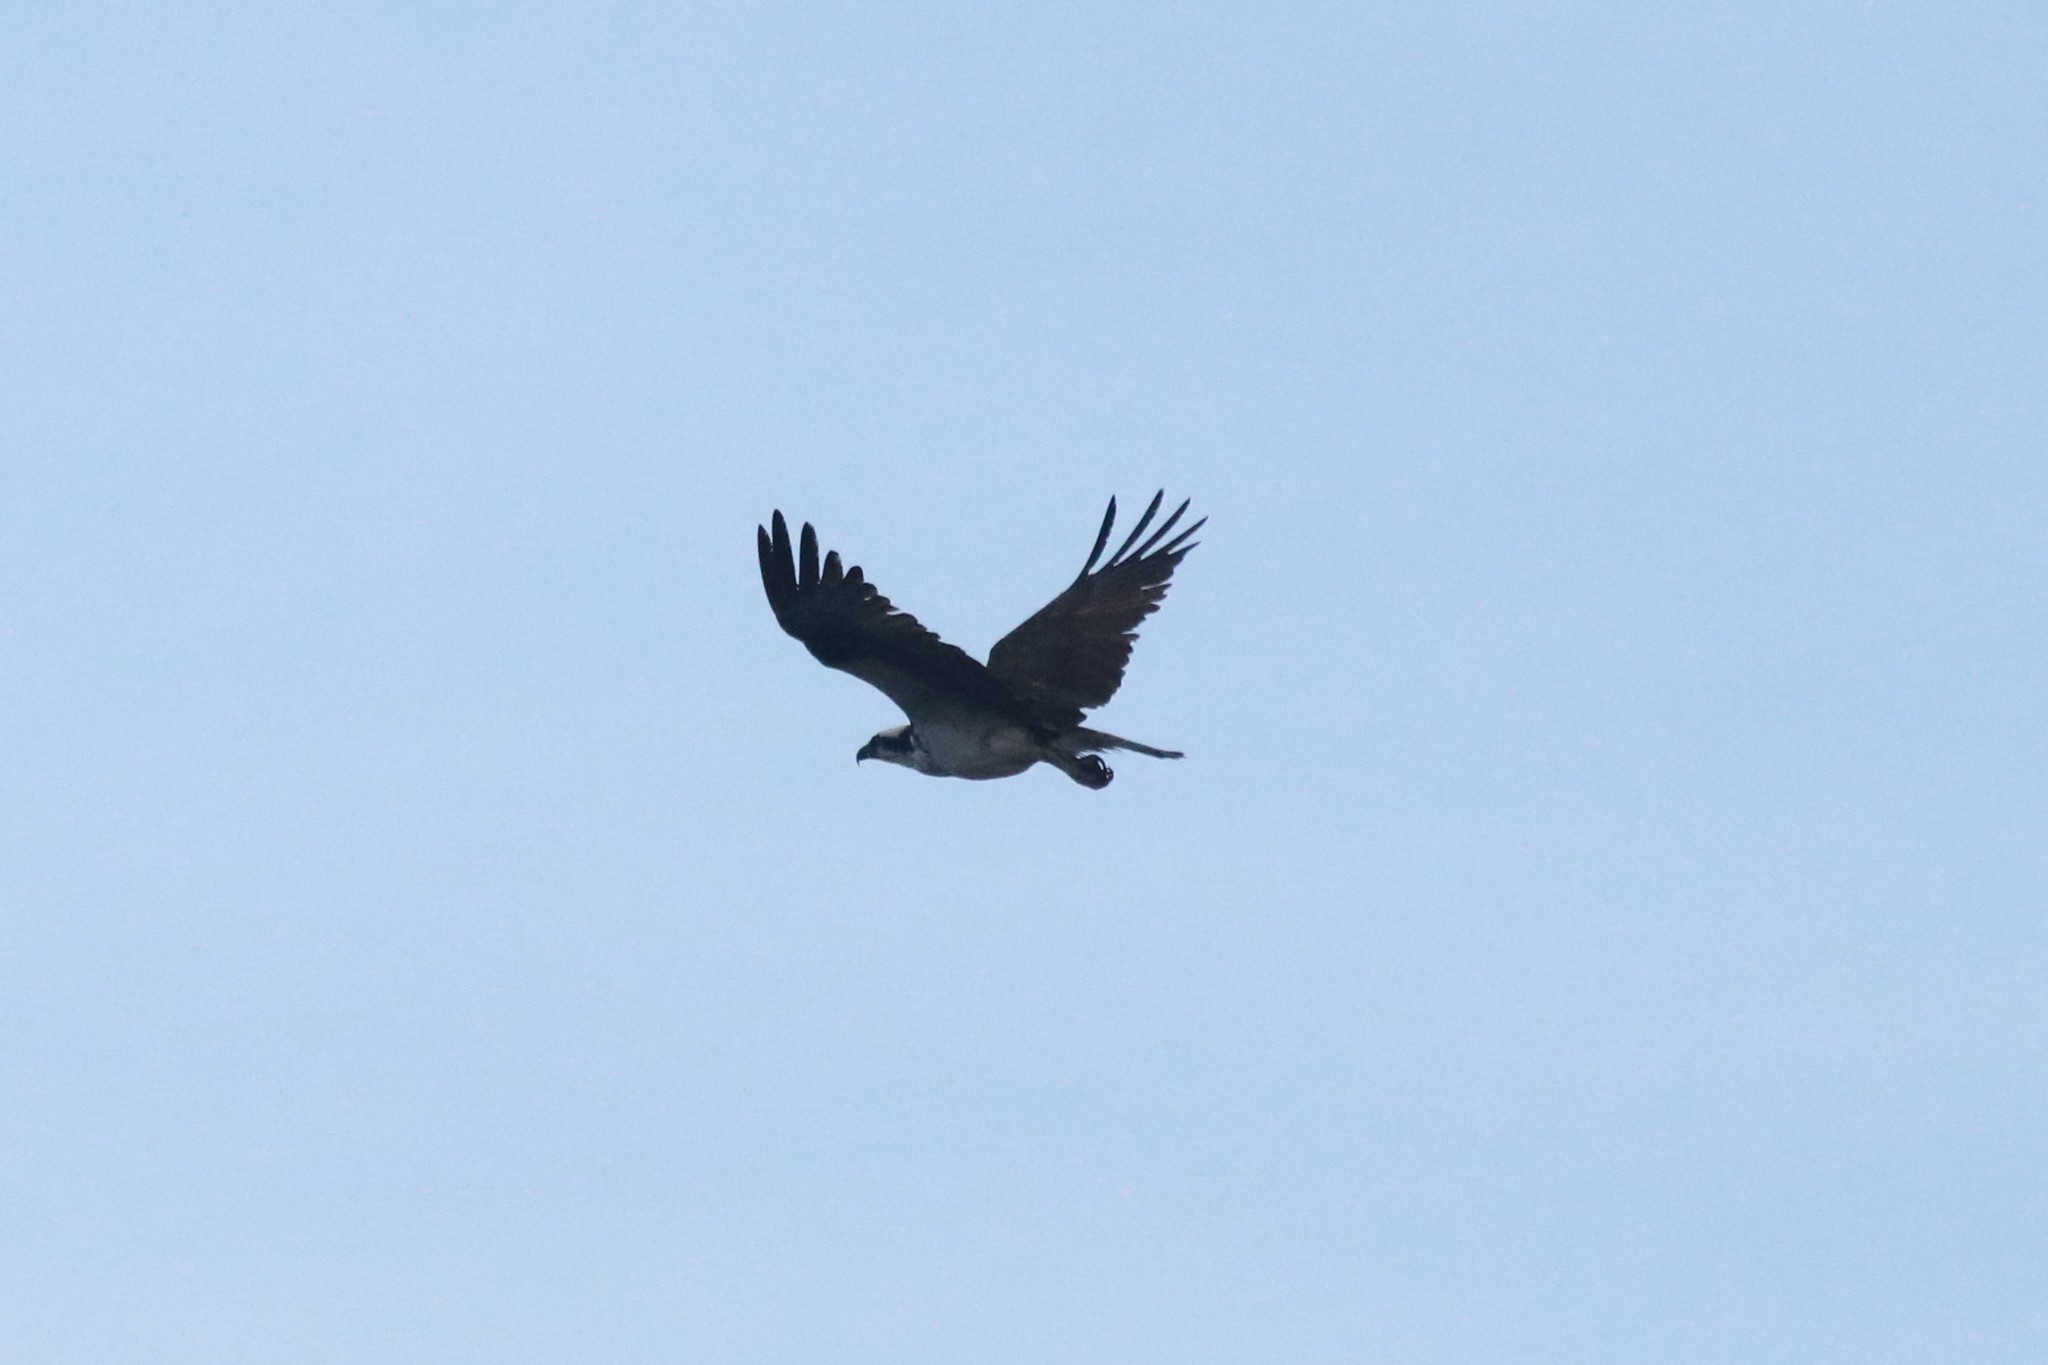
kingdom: Animalia
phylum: Chordata
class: Aves
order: Accipitriformes
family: Pandionidae
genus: Pandion
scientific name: Pandion haliaetus
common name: Osprey
